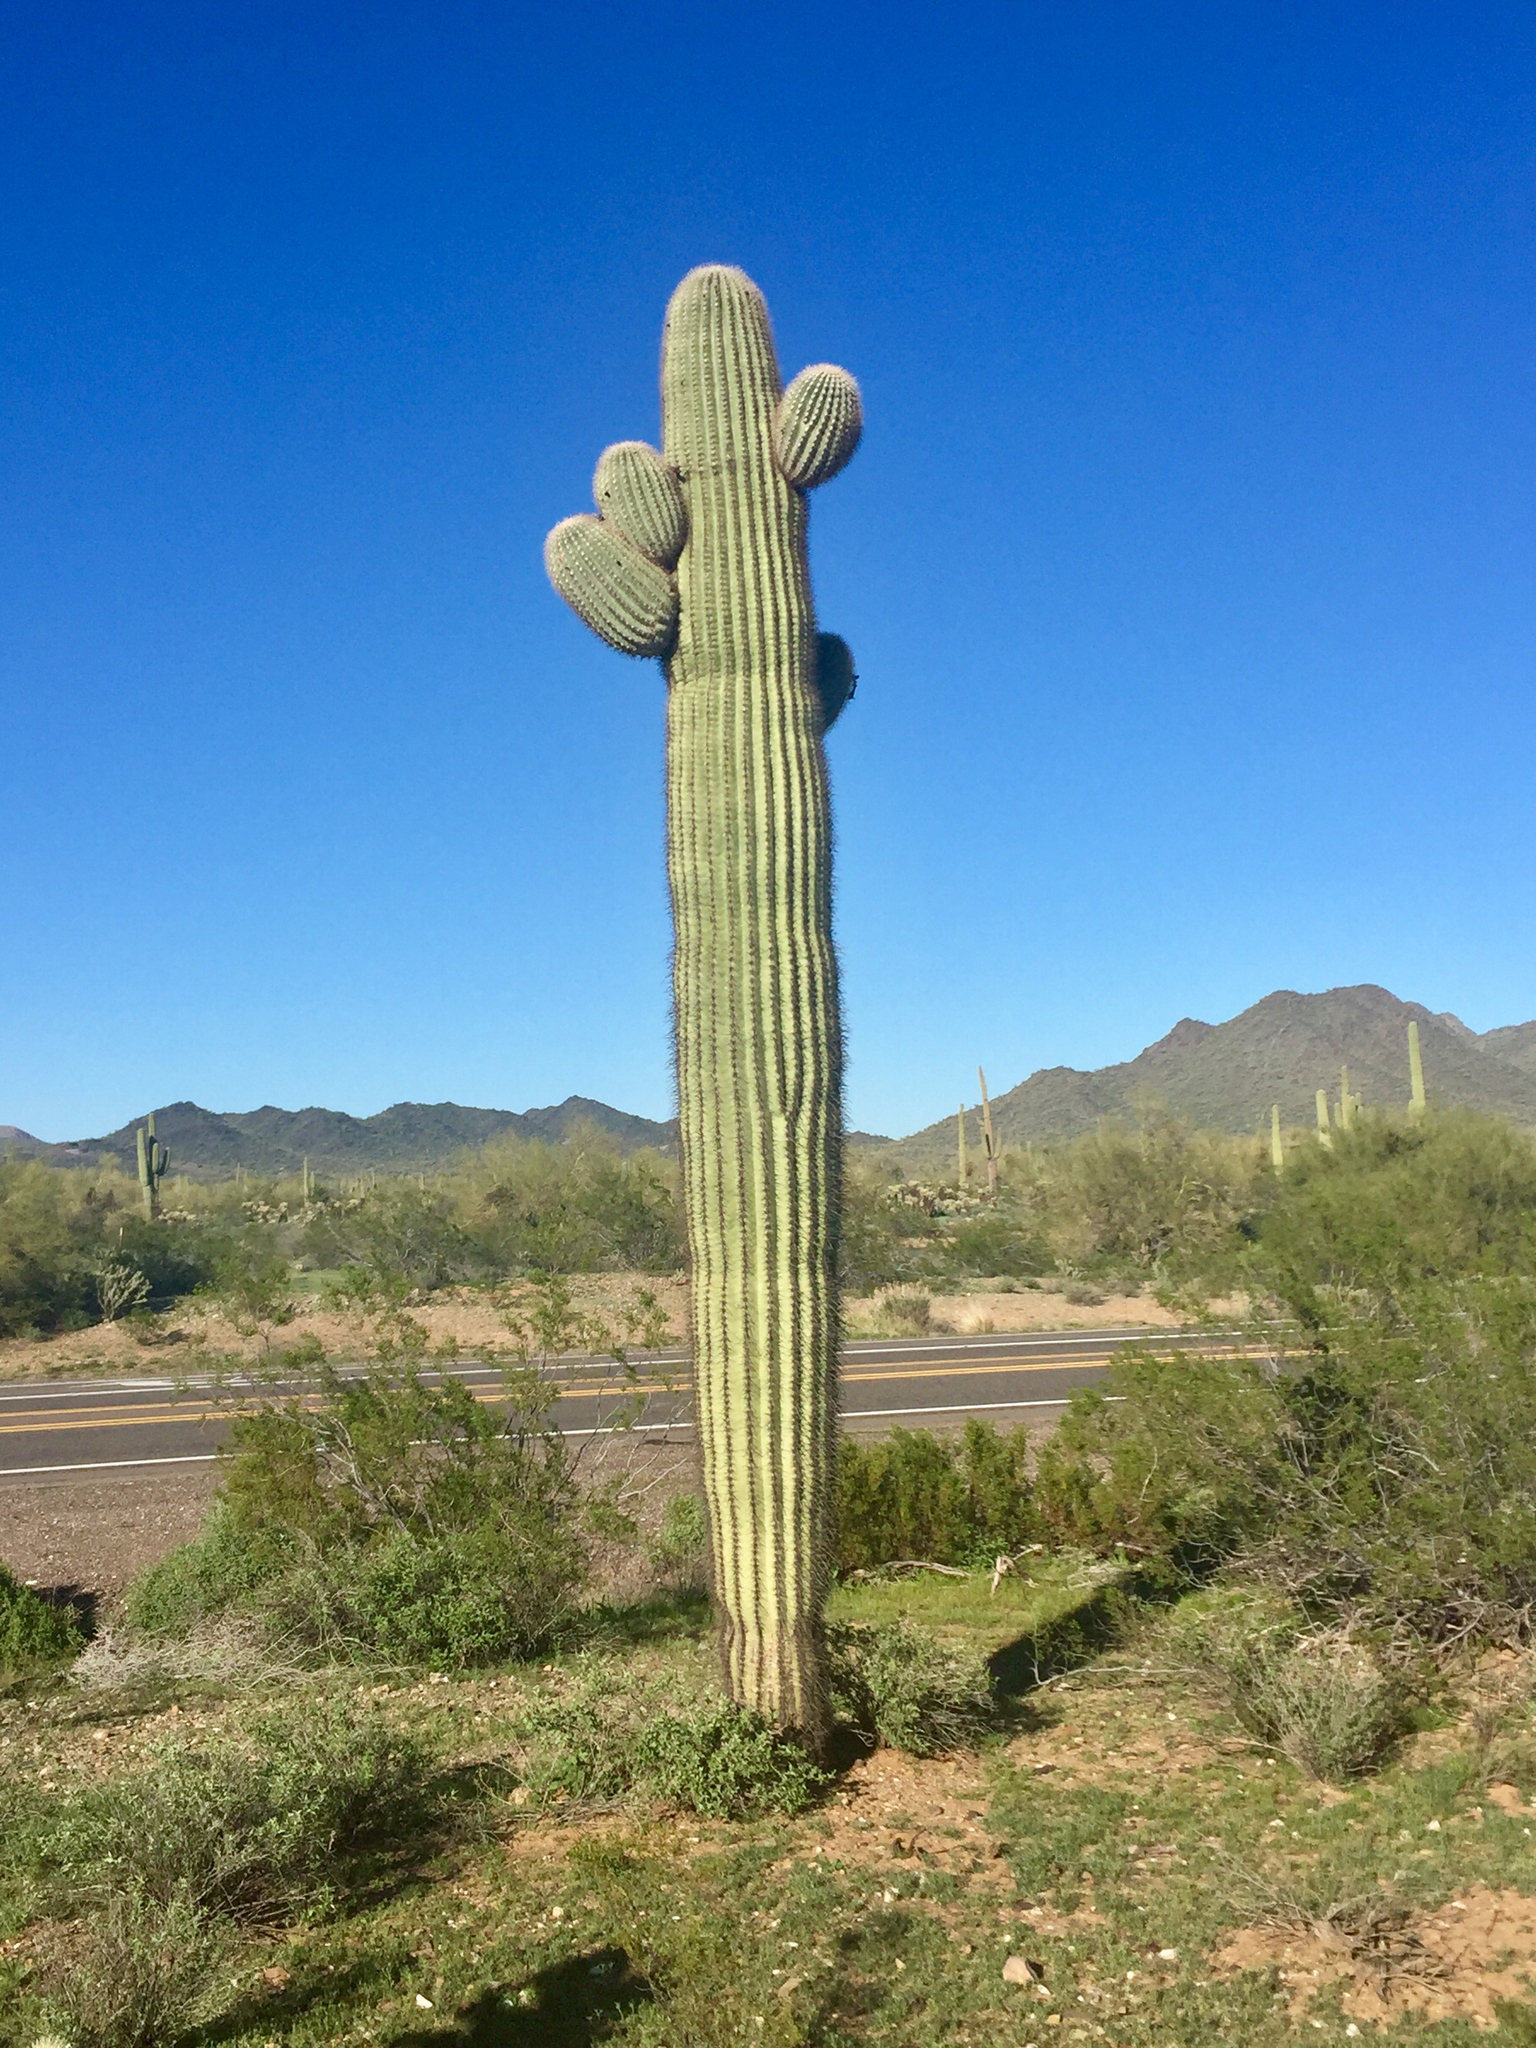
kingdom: Plantae
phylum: Tracheophyta
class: Magnoliopsida
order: Caryophyllales
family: Cactaceae
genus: Carnegiea
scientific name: Carnegiea gigantea
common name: Saguaro
